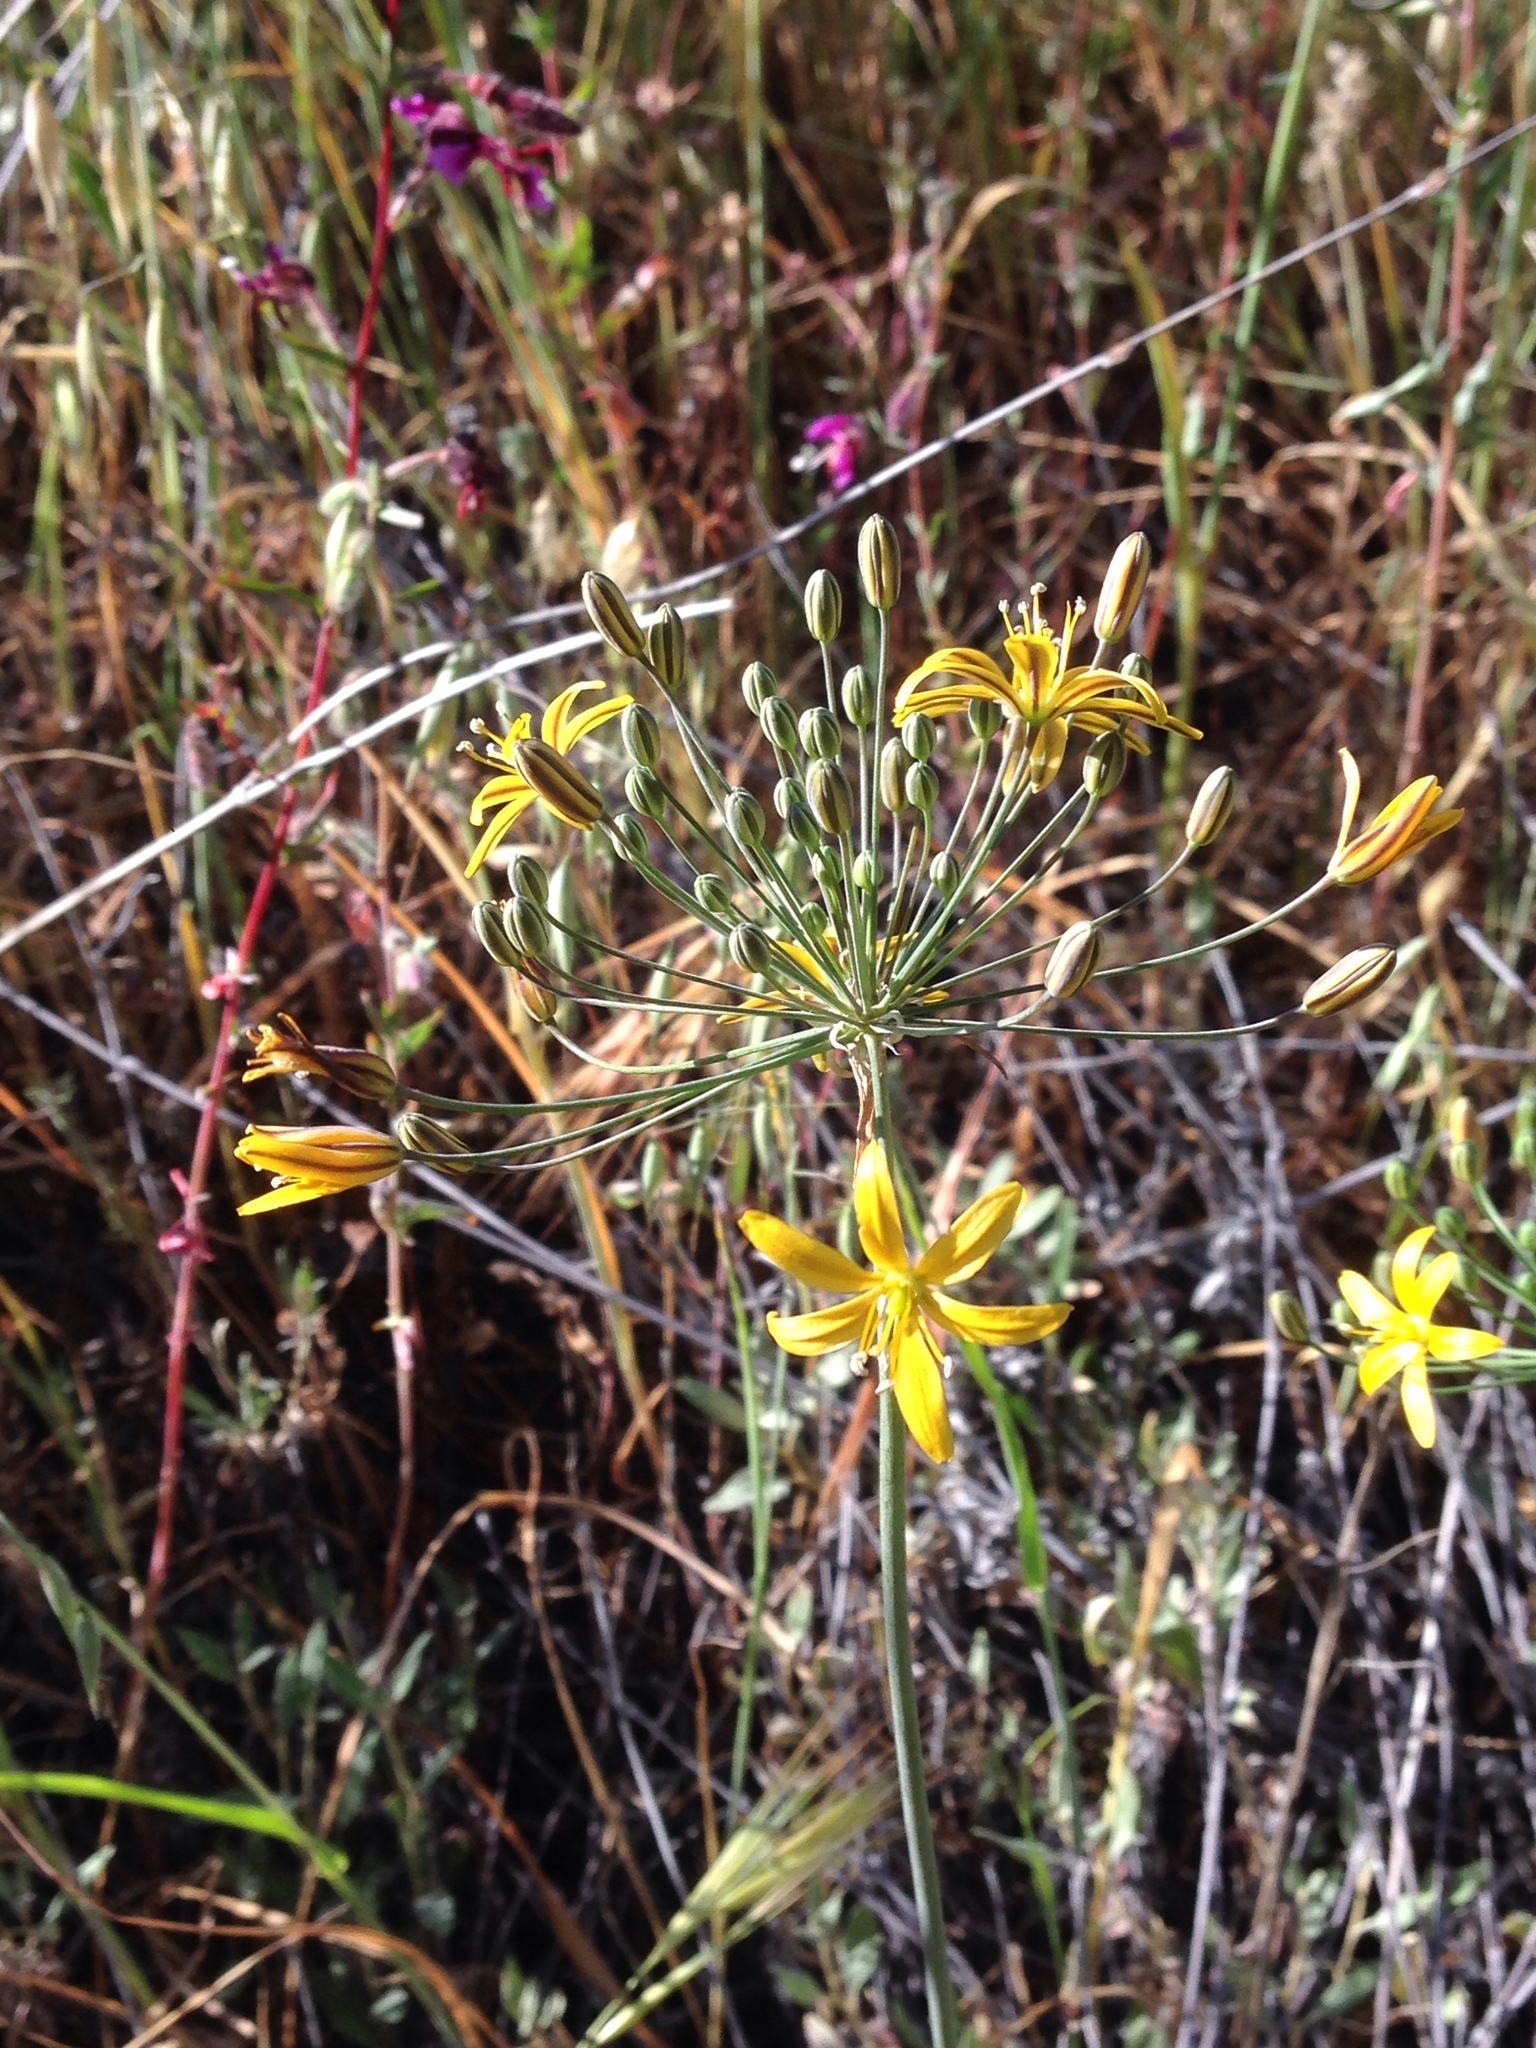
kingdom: Plantae
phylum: Tracheophyta
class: Liliopsida
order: Asparagales
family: Asparagaceae
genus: Bloomeria
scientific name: Bloomeria crocea
